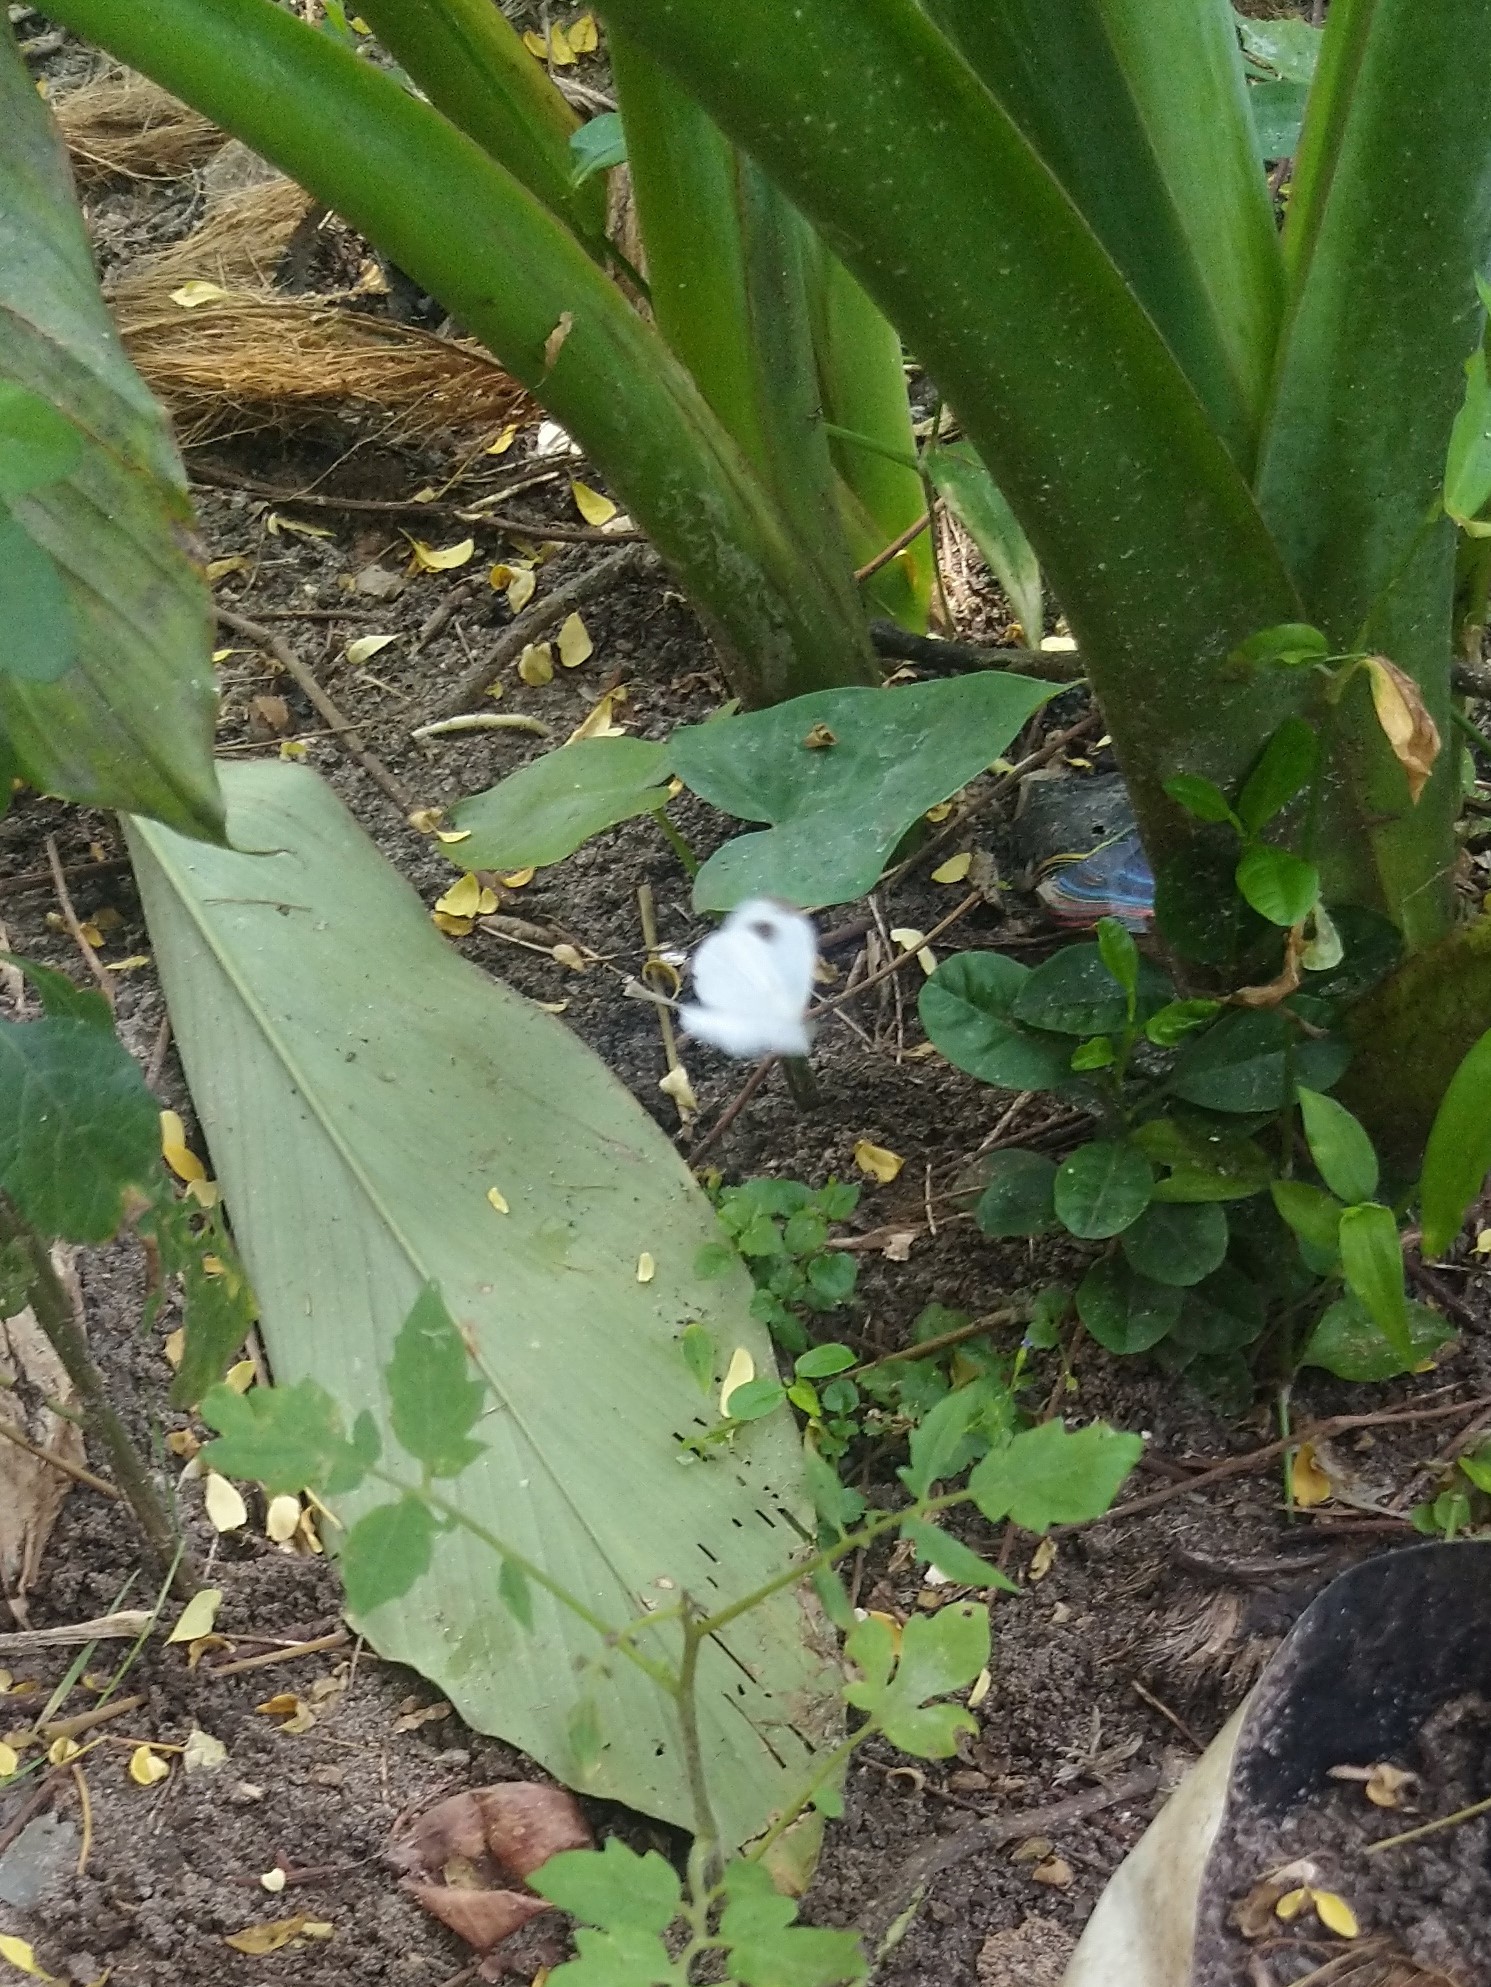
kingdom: Animalia
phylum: Arthropoda
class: Insecta
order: Lepidoptera
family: Pieridae
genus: Leptosia
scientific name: Leptosia nina
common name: Psyche
